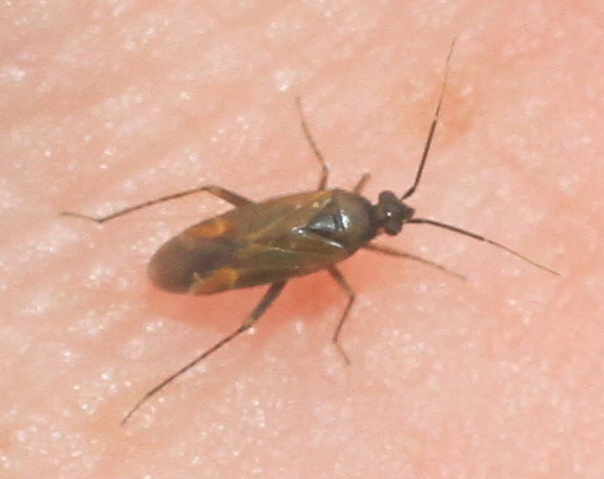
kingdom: Animalia
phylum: Arthropoda
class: Insecta
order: Hemiptera
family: Miridae
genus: Plagiognathus
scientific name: Plagiognathus arbustorum
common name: Plant bug
